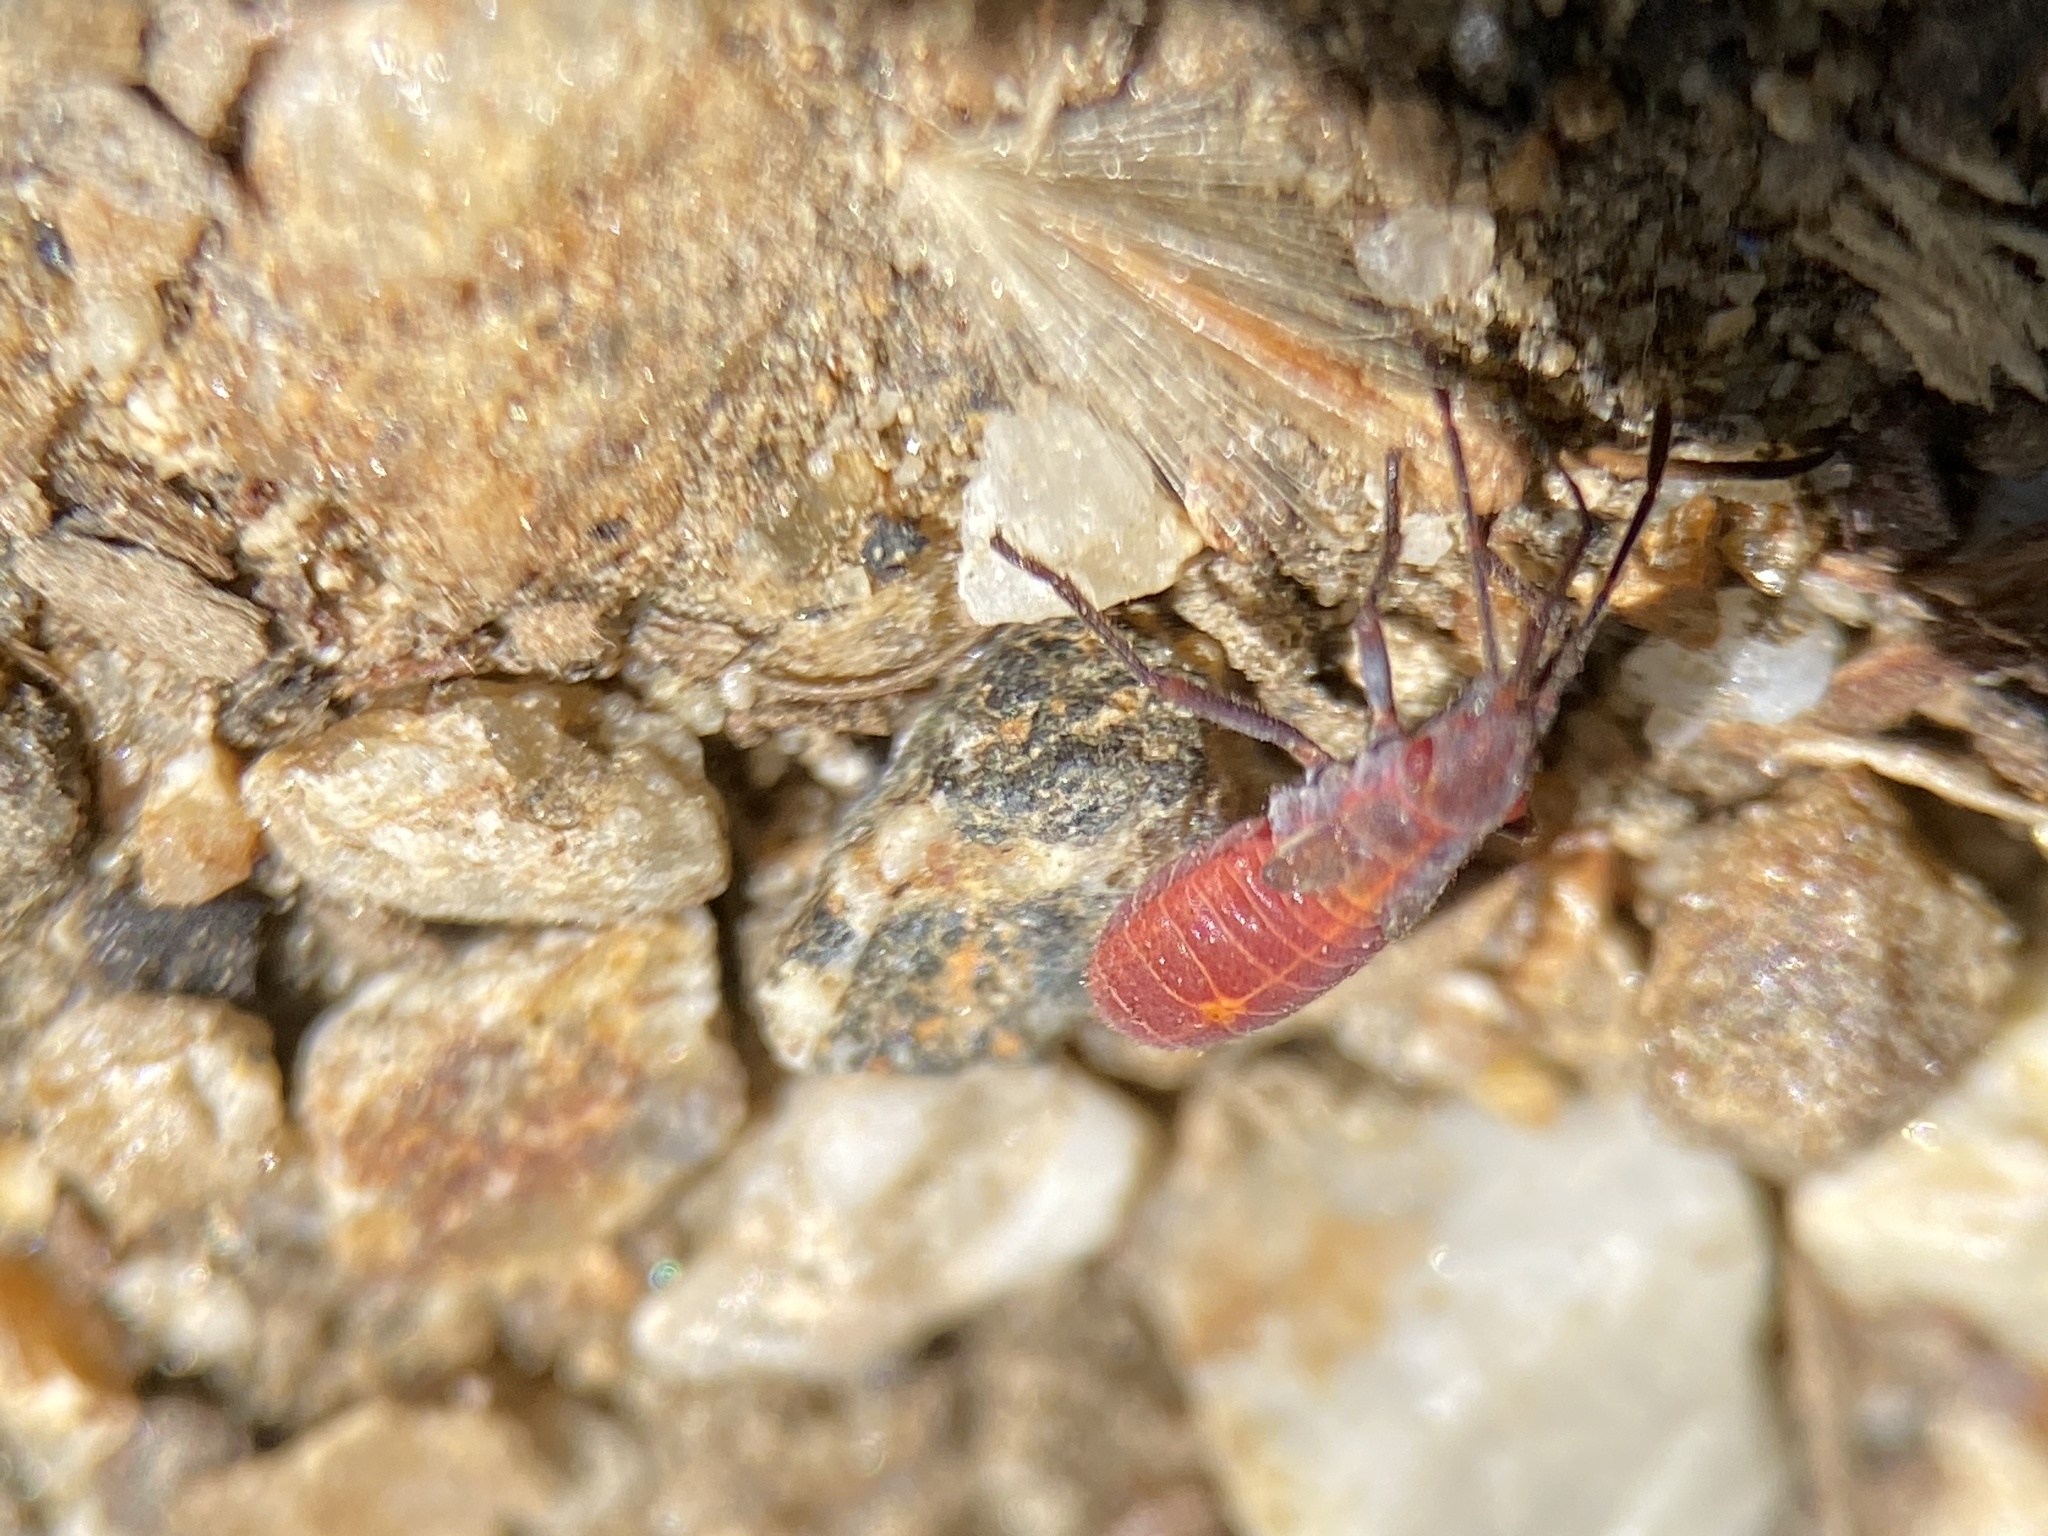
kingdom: Animalia
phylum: Arthropoda
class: Insecta
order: Hemiptera
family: Rhopalidae
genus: Boisea
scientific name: Boisea rubrolineata
